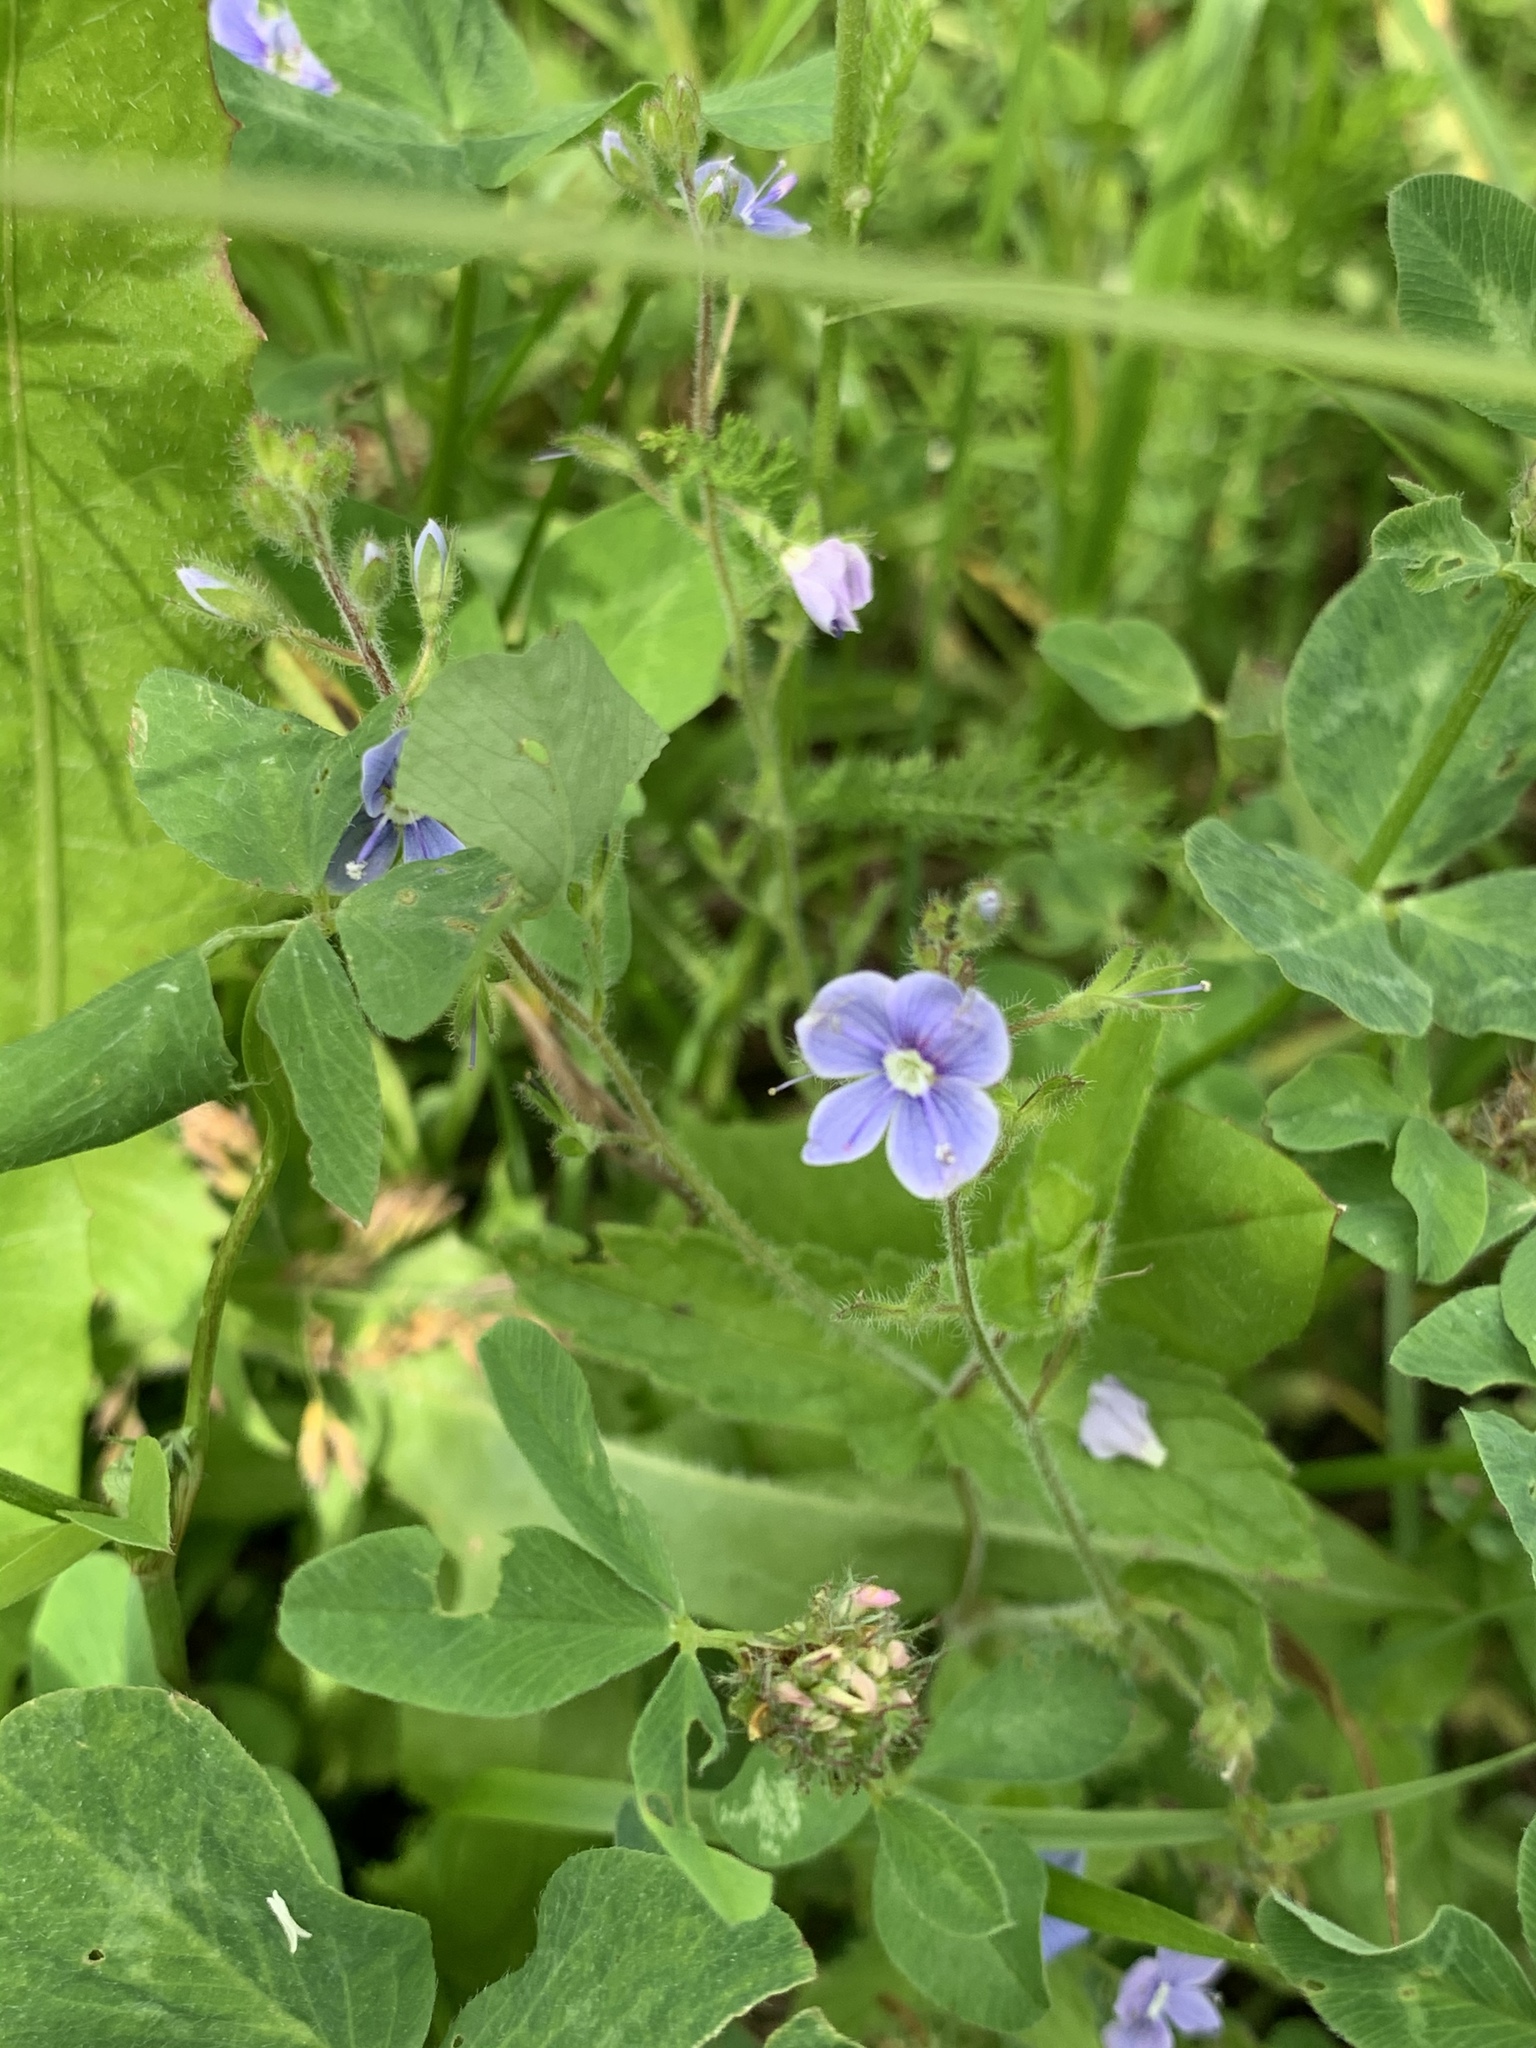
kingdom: Plantae
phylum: Tracheophyta
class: Magnoliopsida
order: Lamiales
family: Plantaginaceae
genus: Veronica
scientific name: Veronica chamaedrys
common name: Germander speedwell
